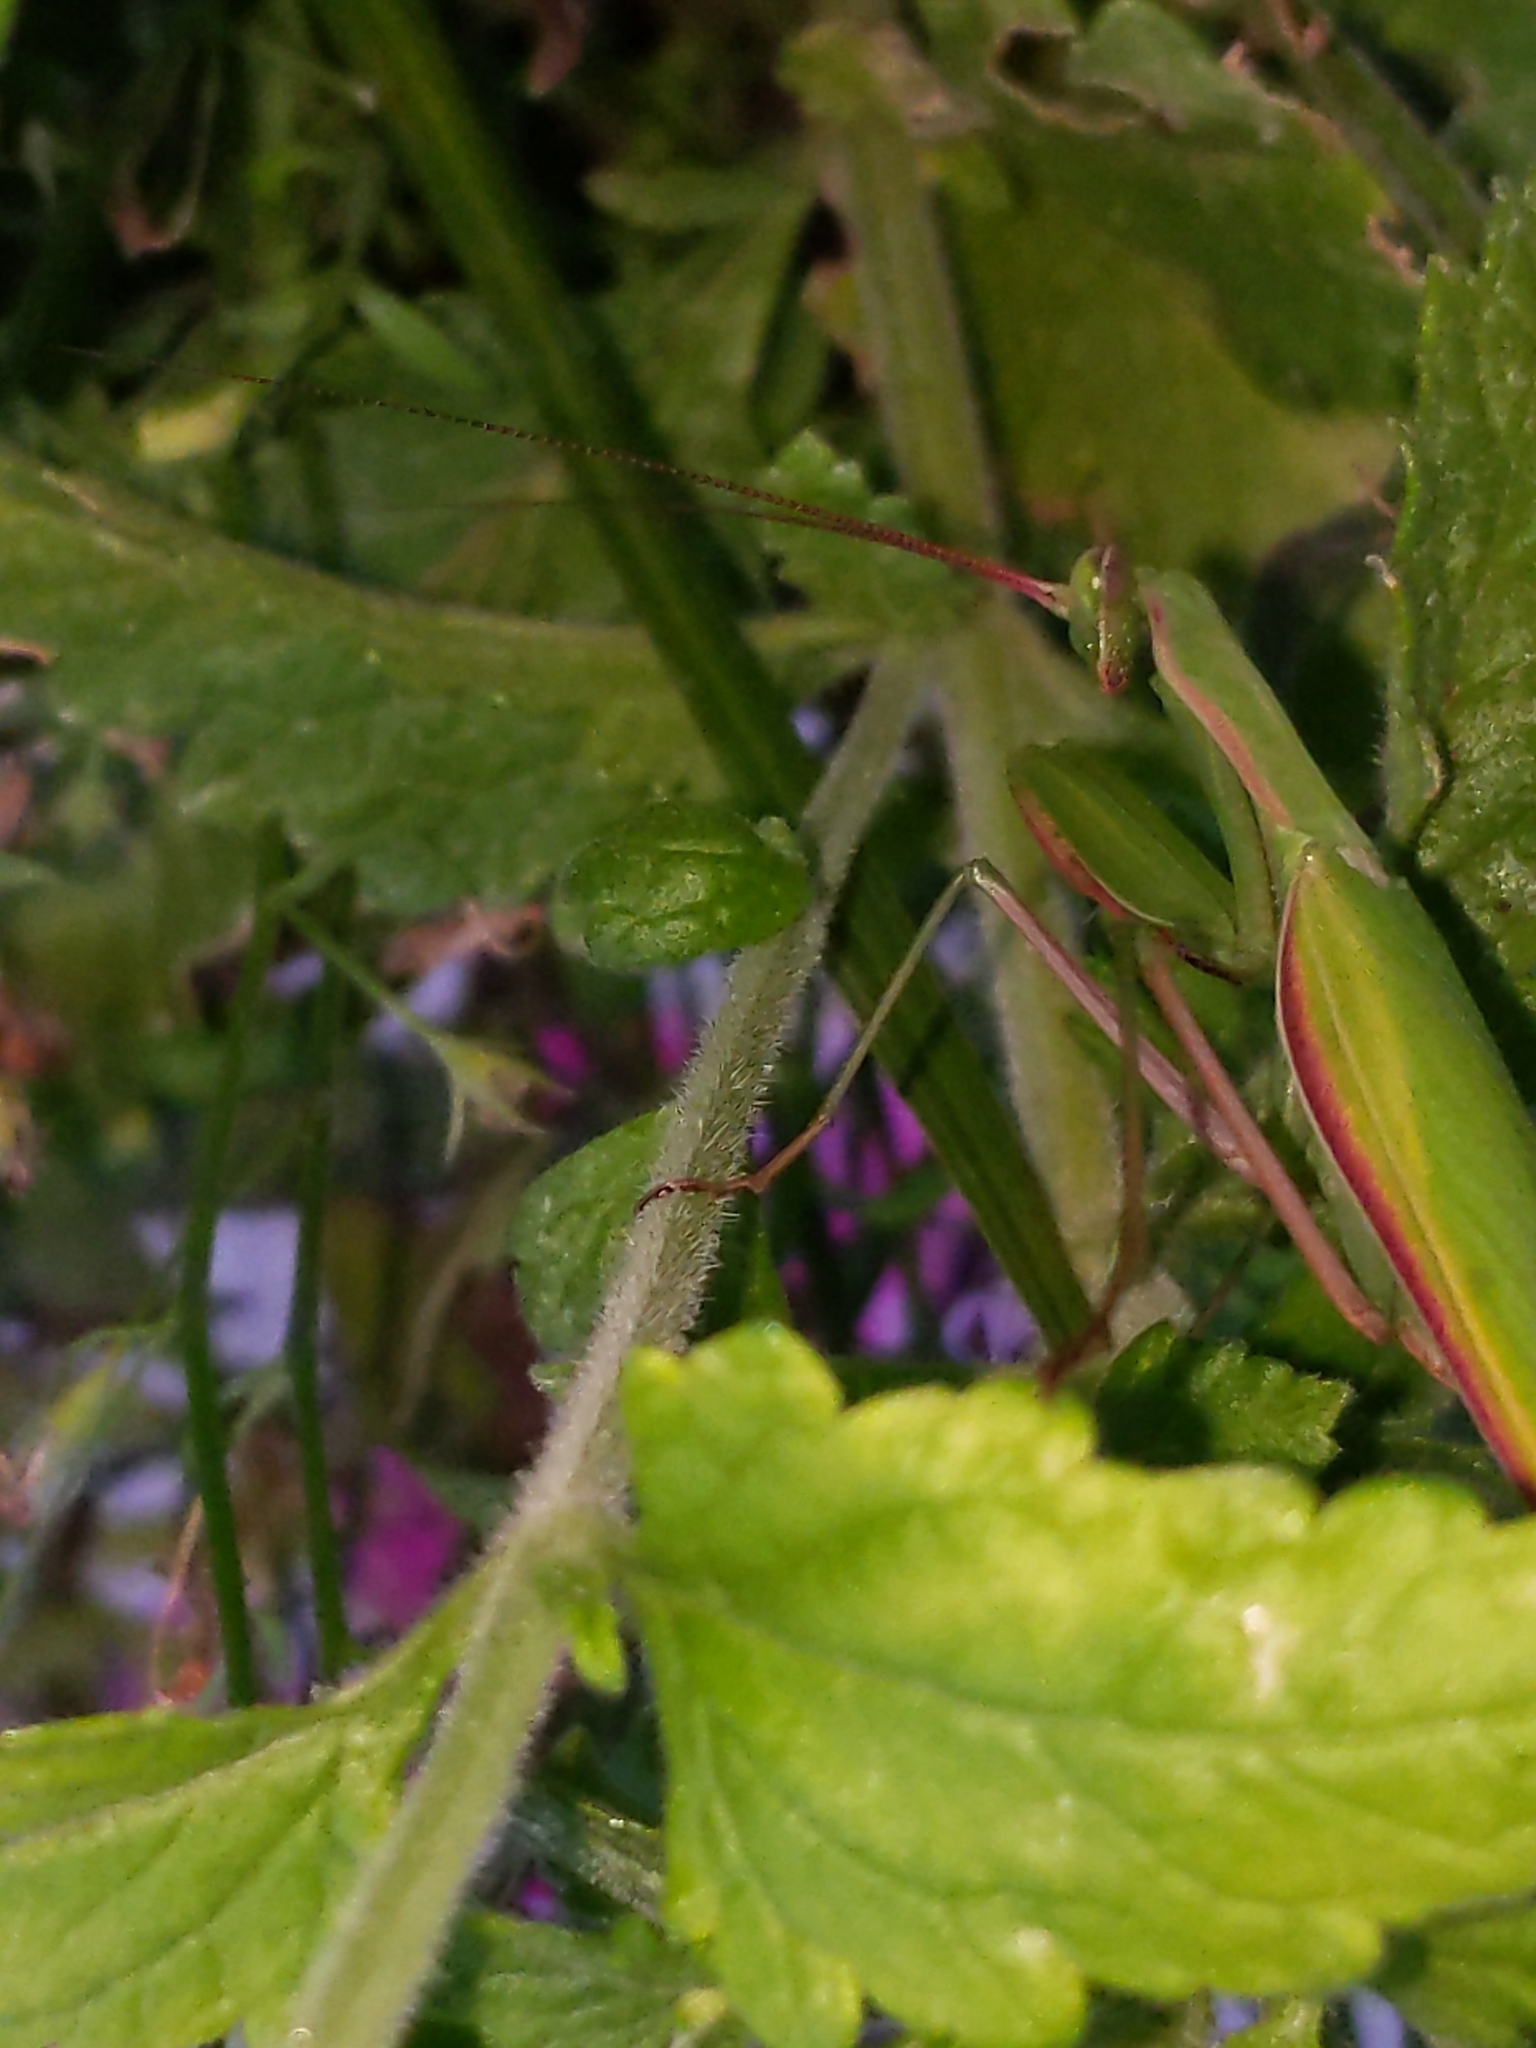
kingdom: Animalia
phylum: Arthropoda
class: Insecta
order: Mantodea
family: Mantidae
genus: Mantis
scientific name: Mantis religiosa
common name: Praying mantis
